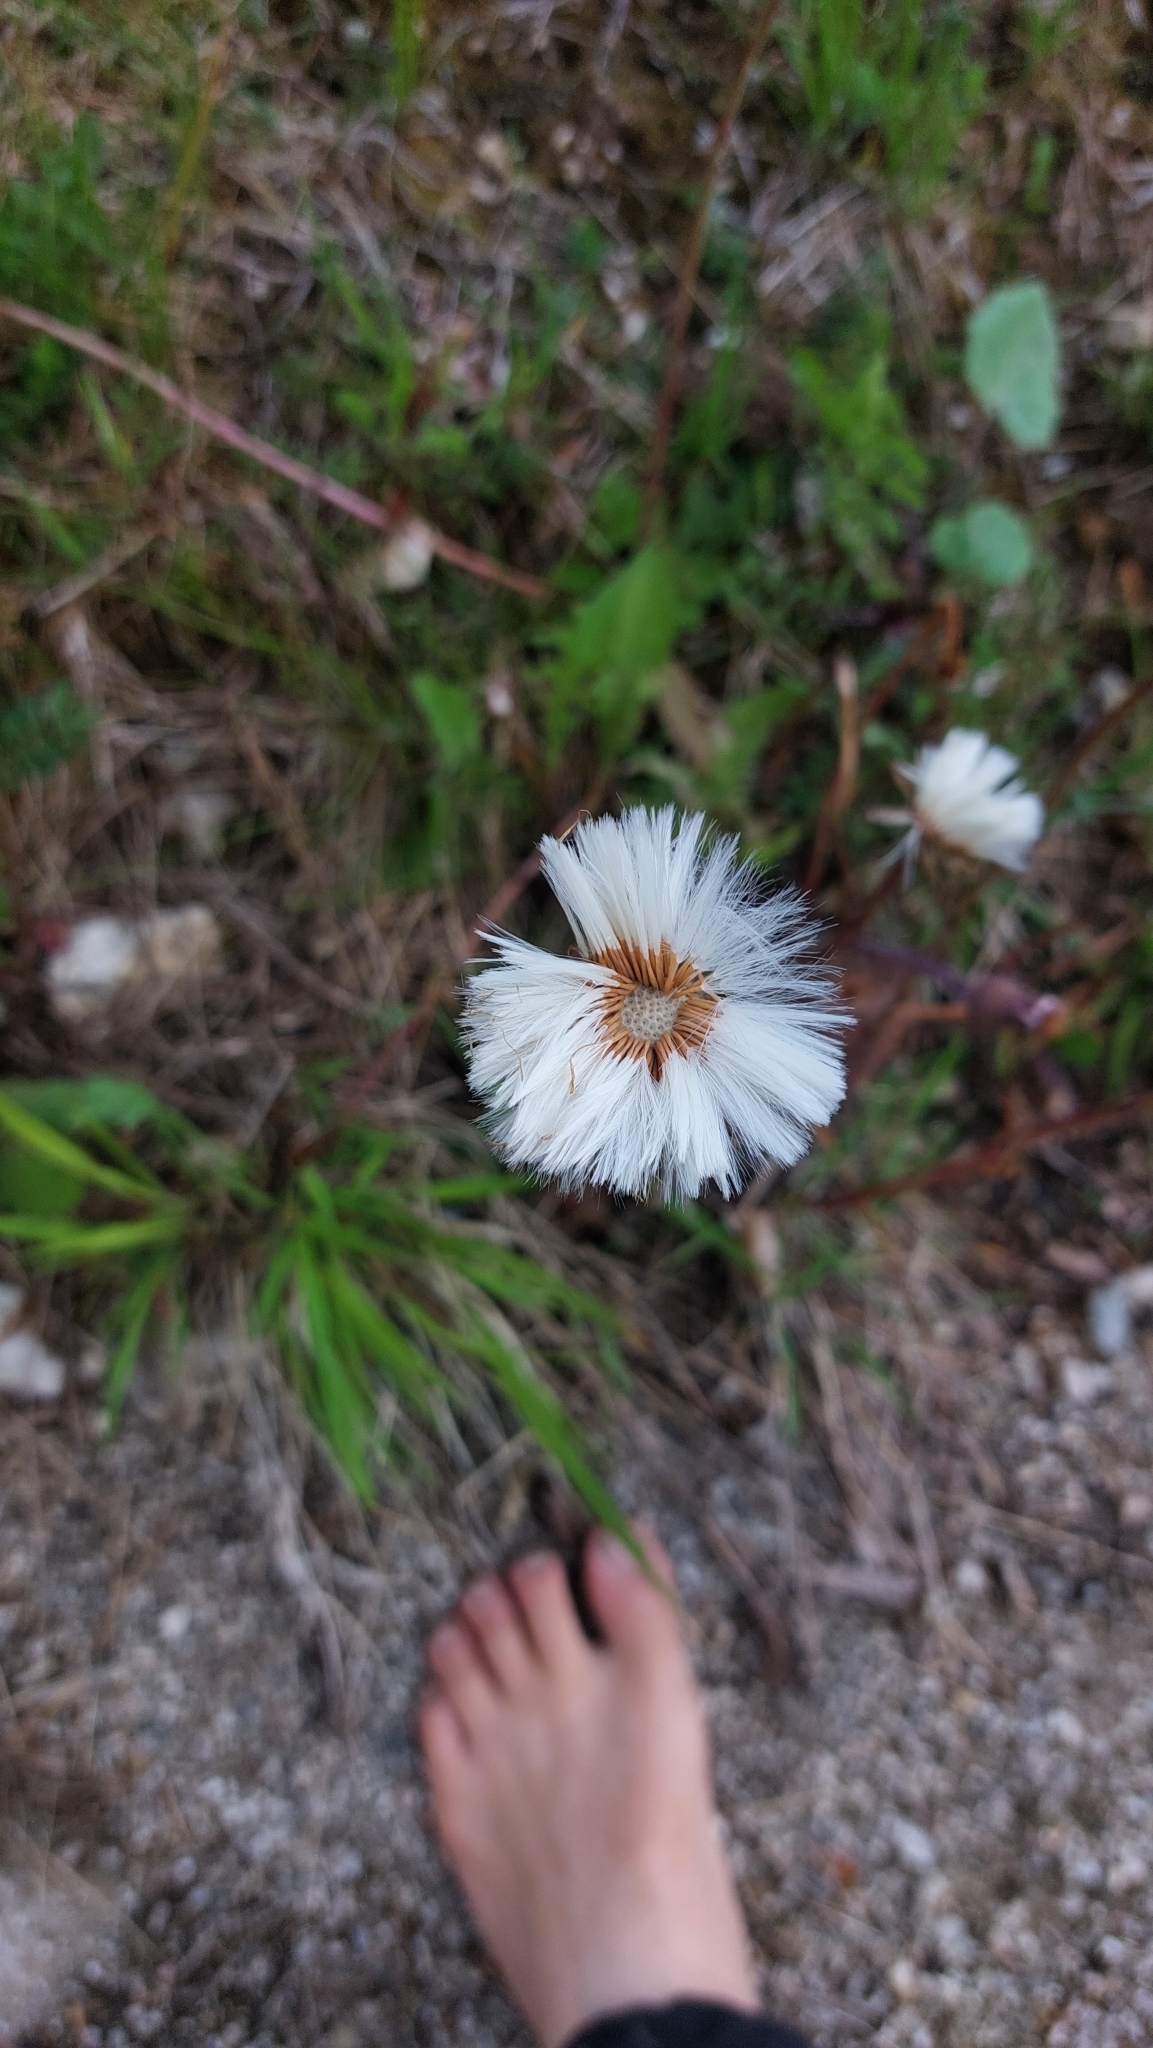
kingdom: Plantae
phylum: Tracheophyta
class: Magnoliopsida
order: Asterales
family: Asteraceae
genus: Tussilago
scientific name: Tussilago farfara
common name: Coltsfoot
